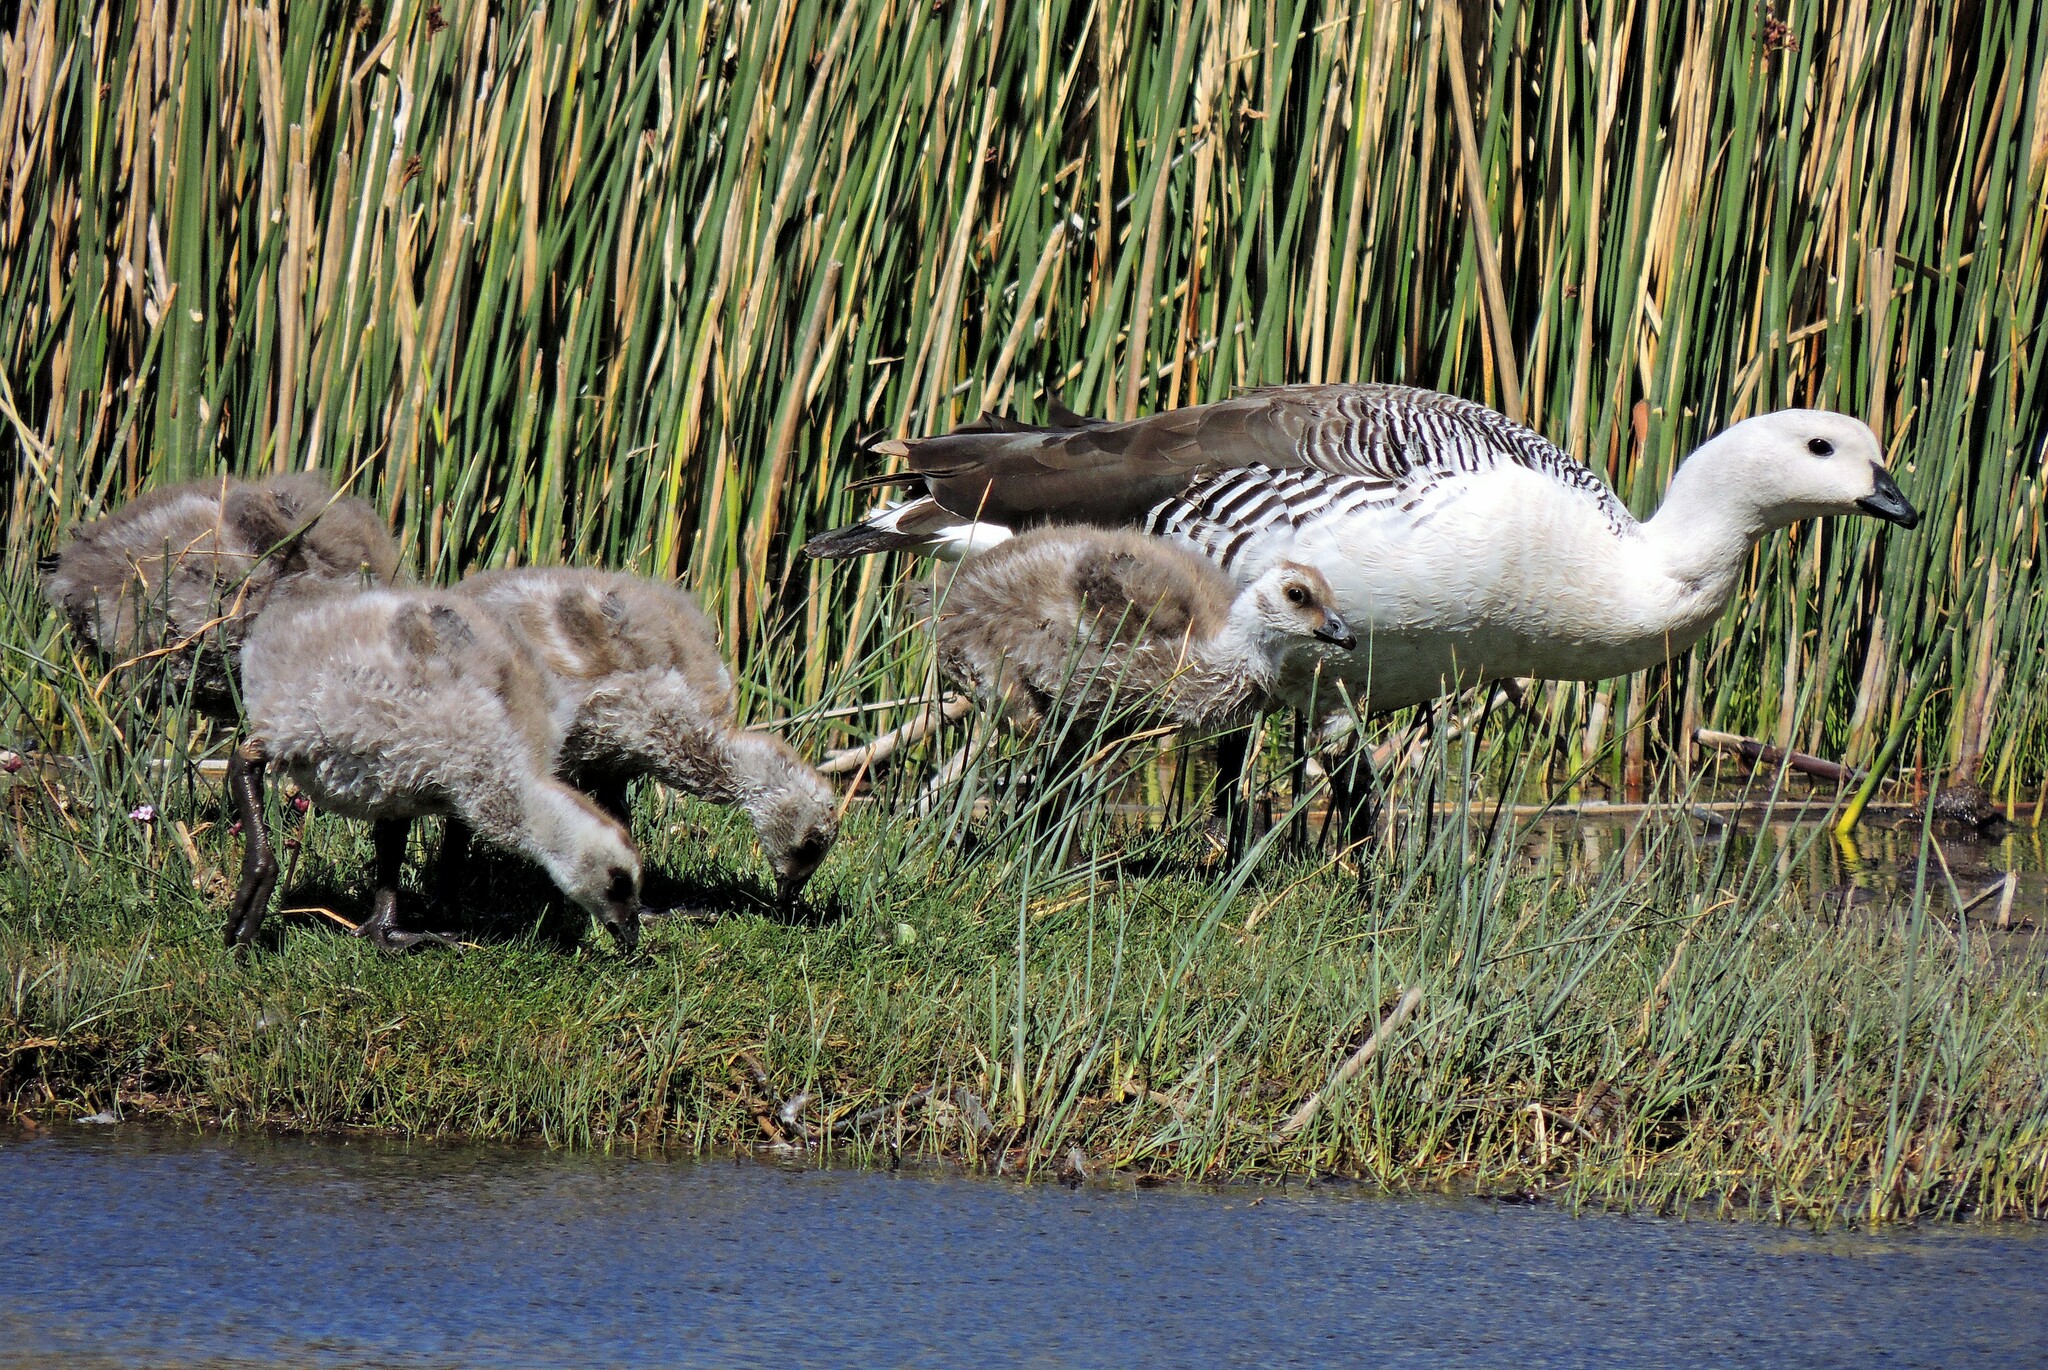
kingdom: Animalia
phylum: Chordata
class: Aves
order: Anseriformes
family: Anatidae
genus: Chloephaga
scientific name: Chloephaga picta
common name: Upland goose
